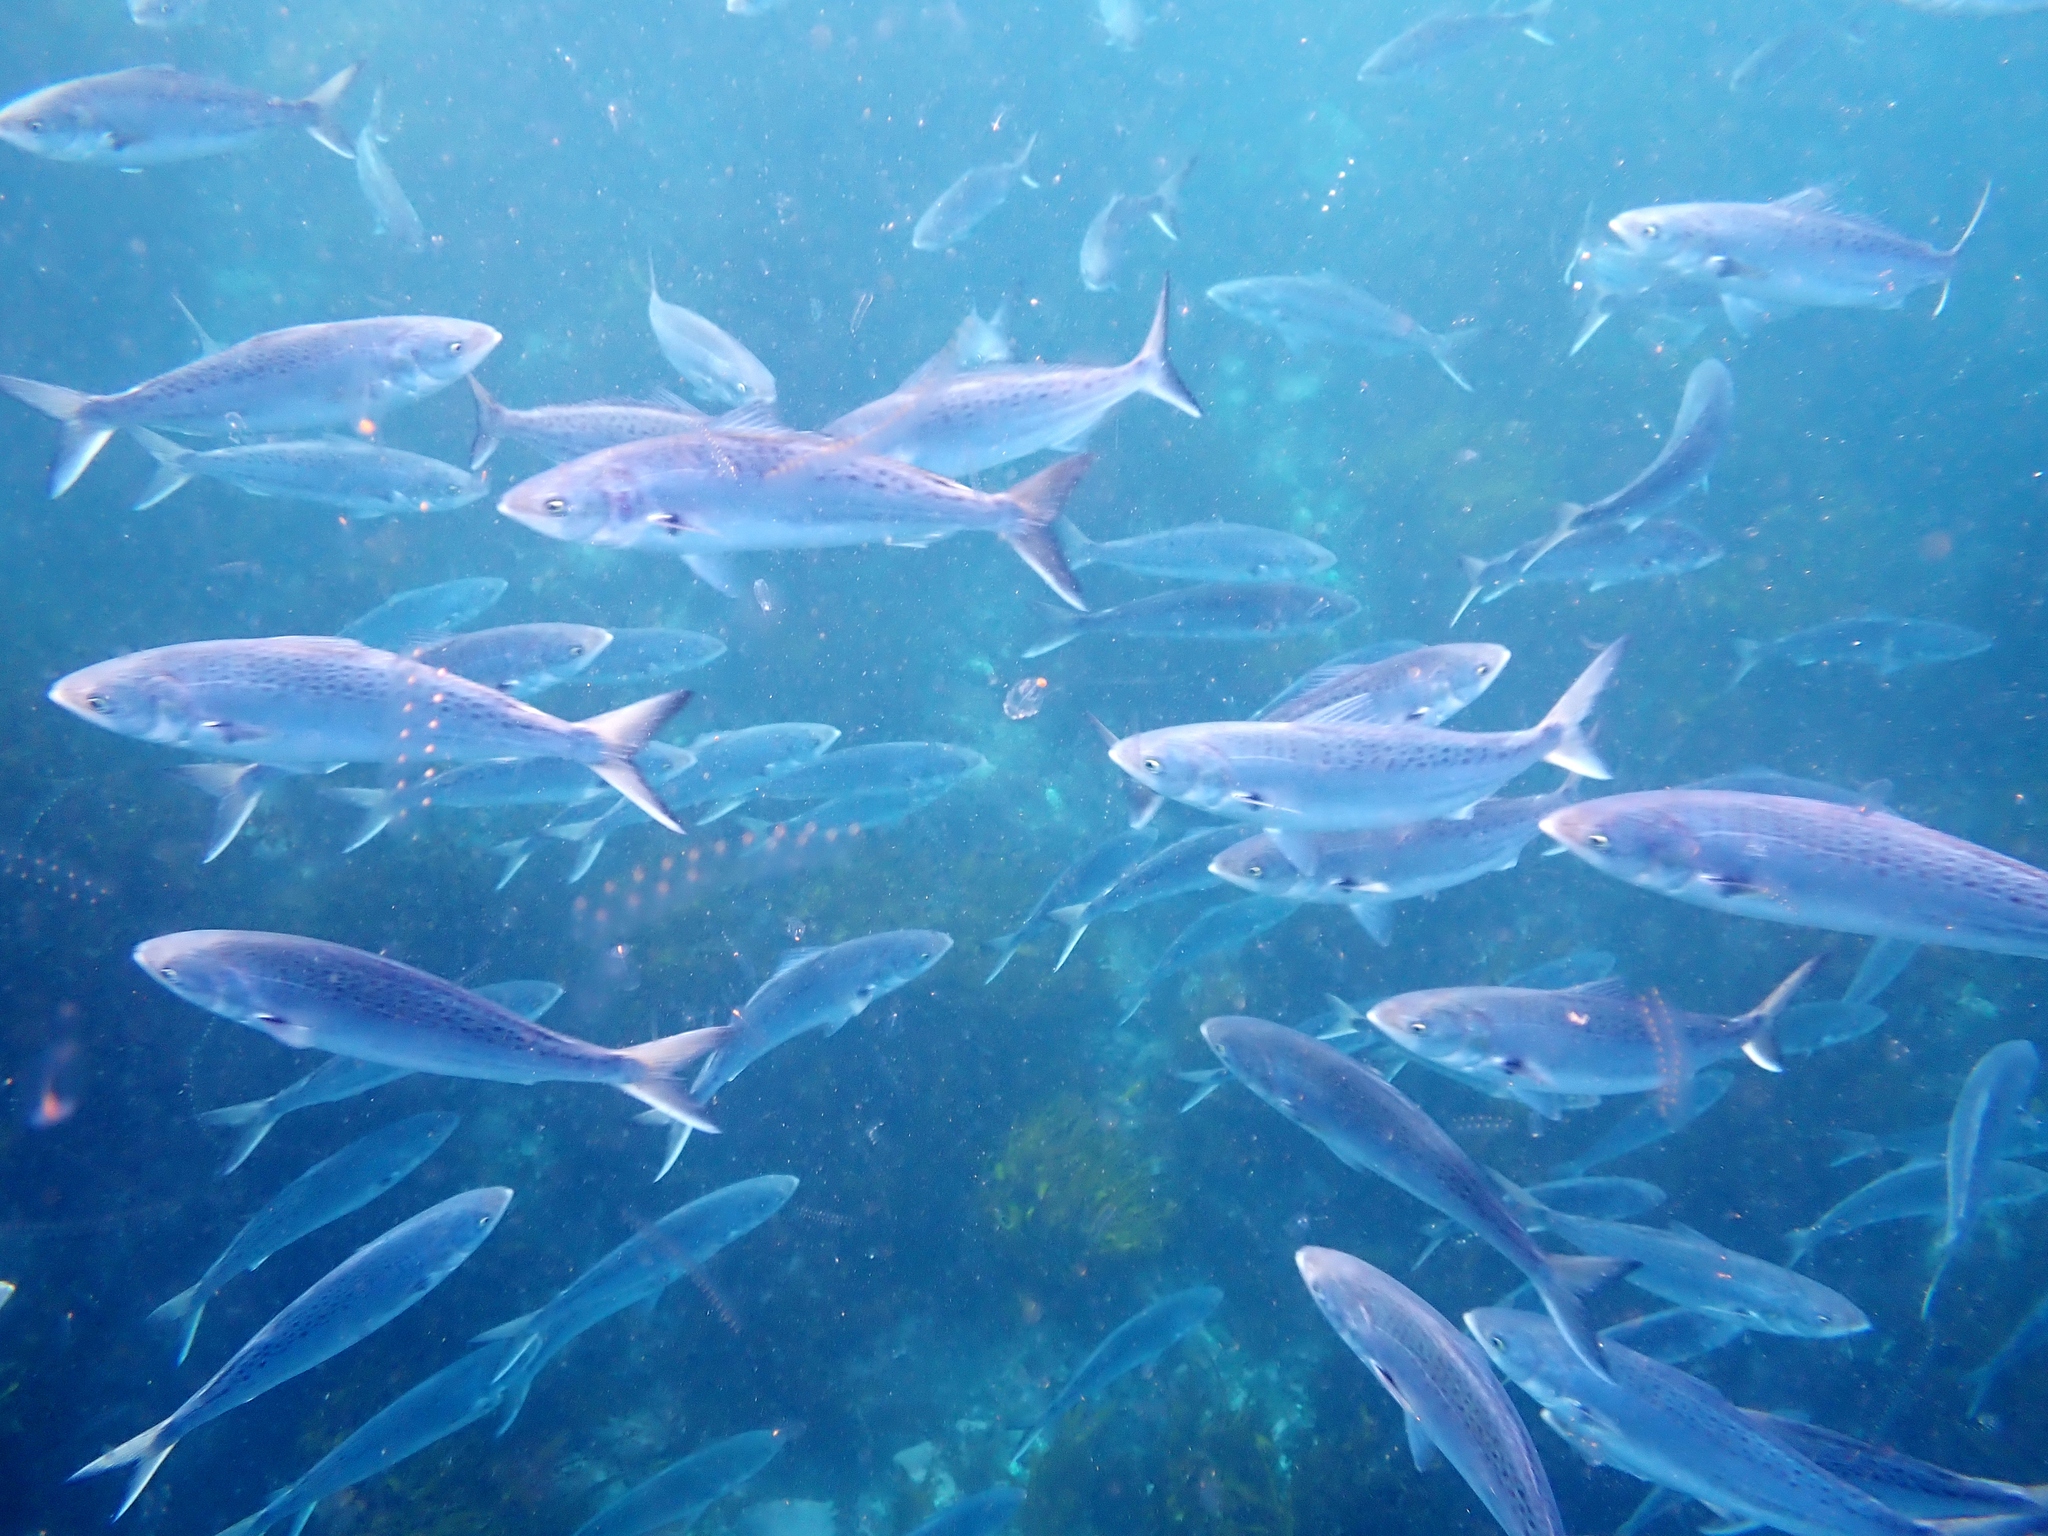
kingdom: Animalia
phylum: Chordata
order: Perciformes
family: Arripidae
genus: Arripis
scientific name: Arripis trutta
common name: Kahawai
